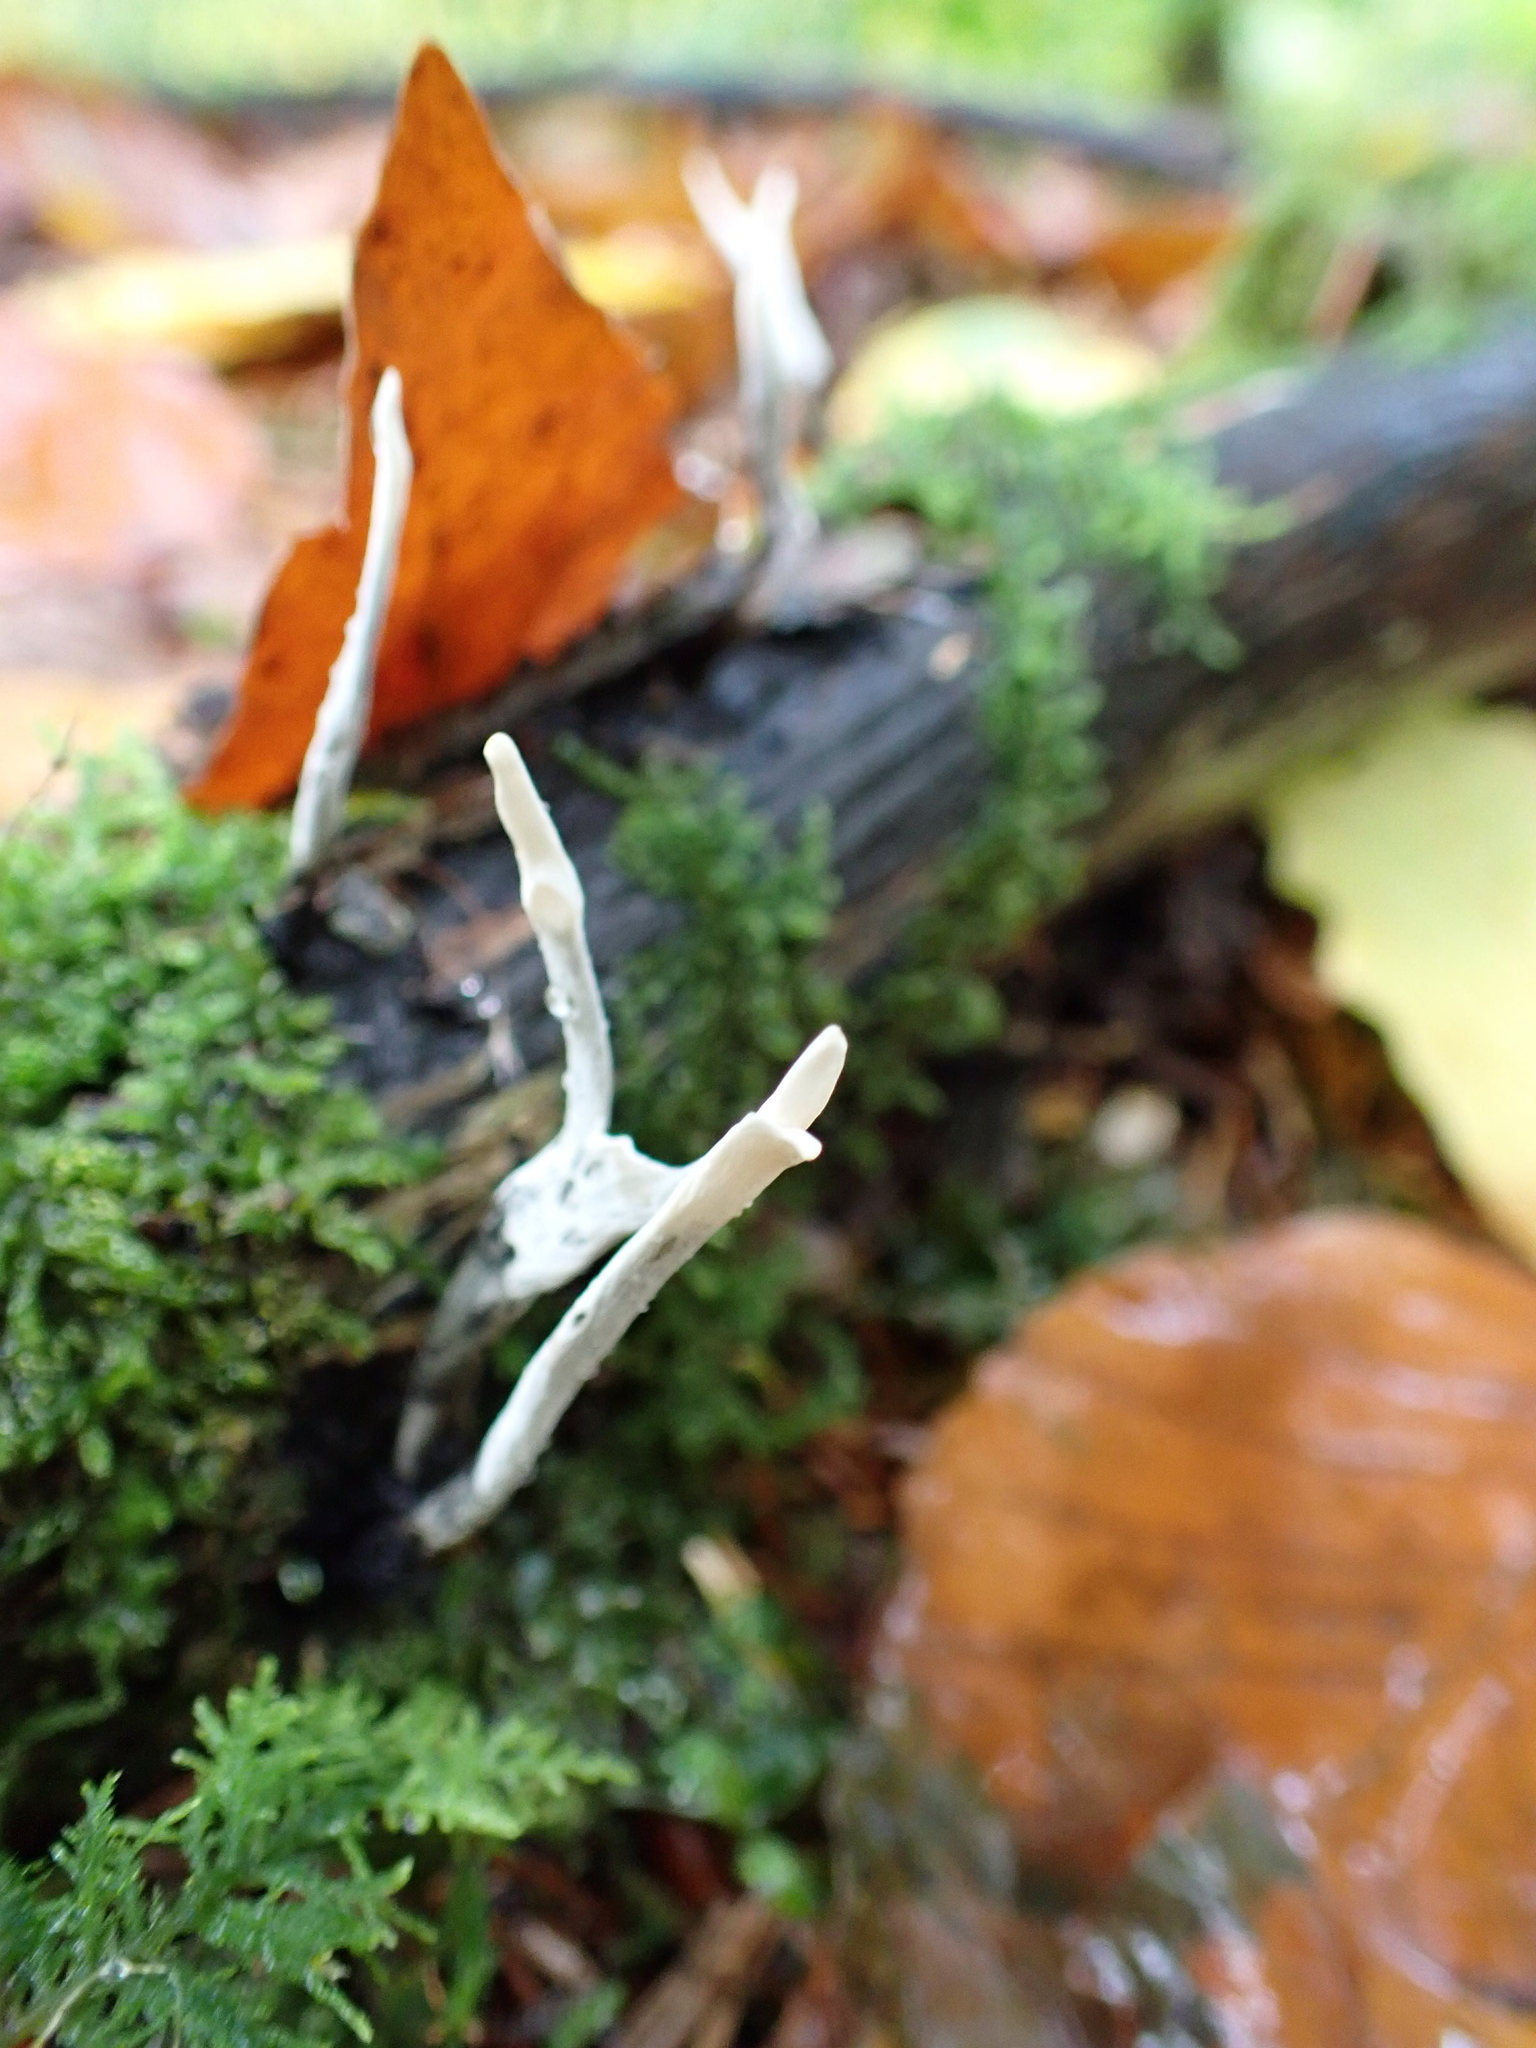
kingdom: Fungi
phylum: Ascomycota
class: Sordariomycetes
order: Xylariales
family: Xylariaceae
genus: Xylaria
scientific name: Xylaria hypoxylon
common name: Candle-snuff fungus
